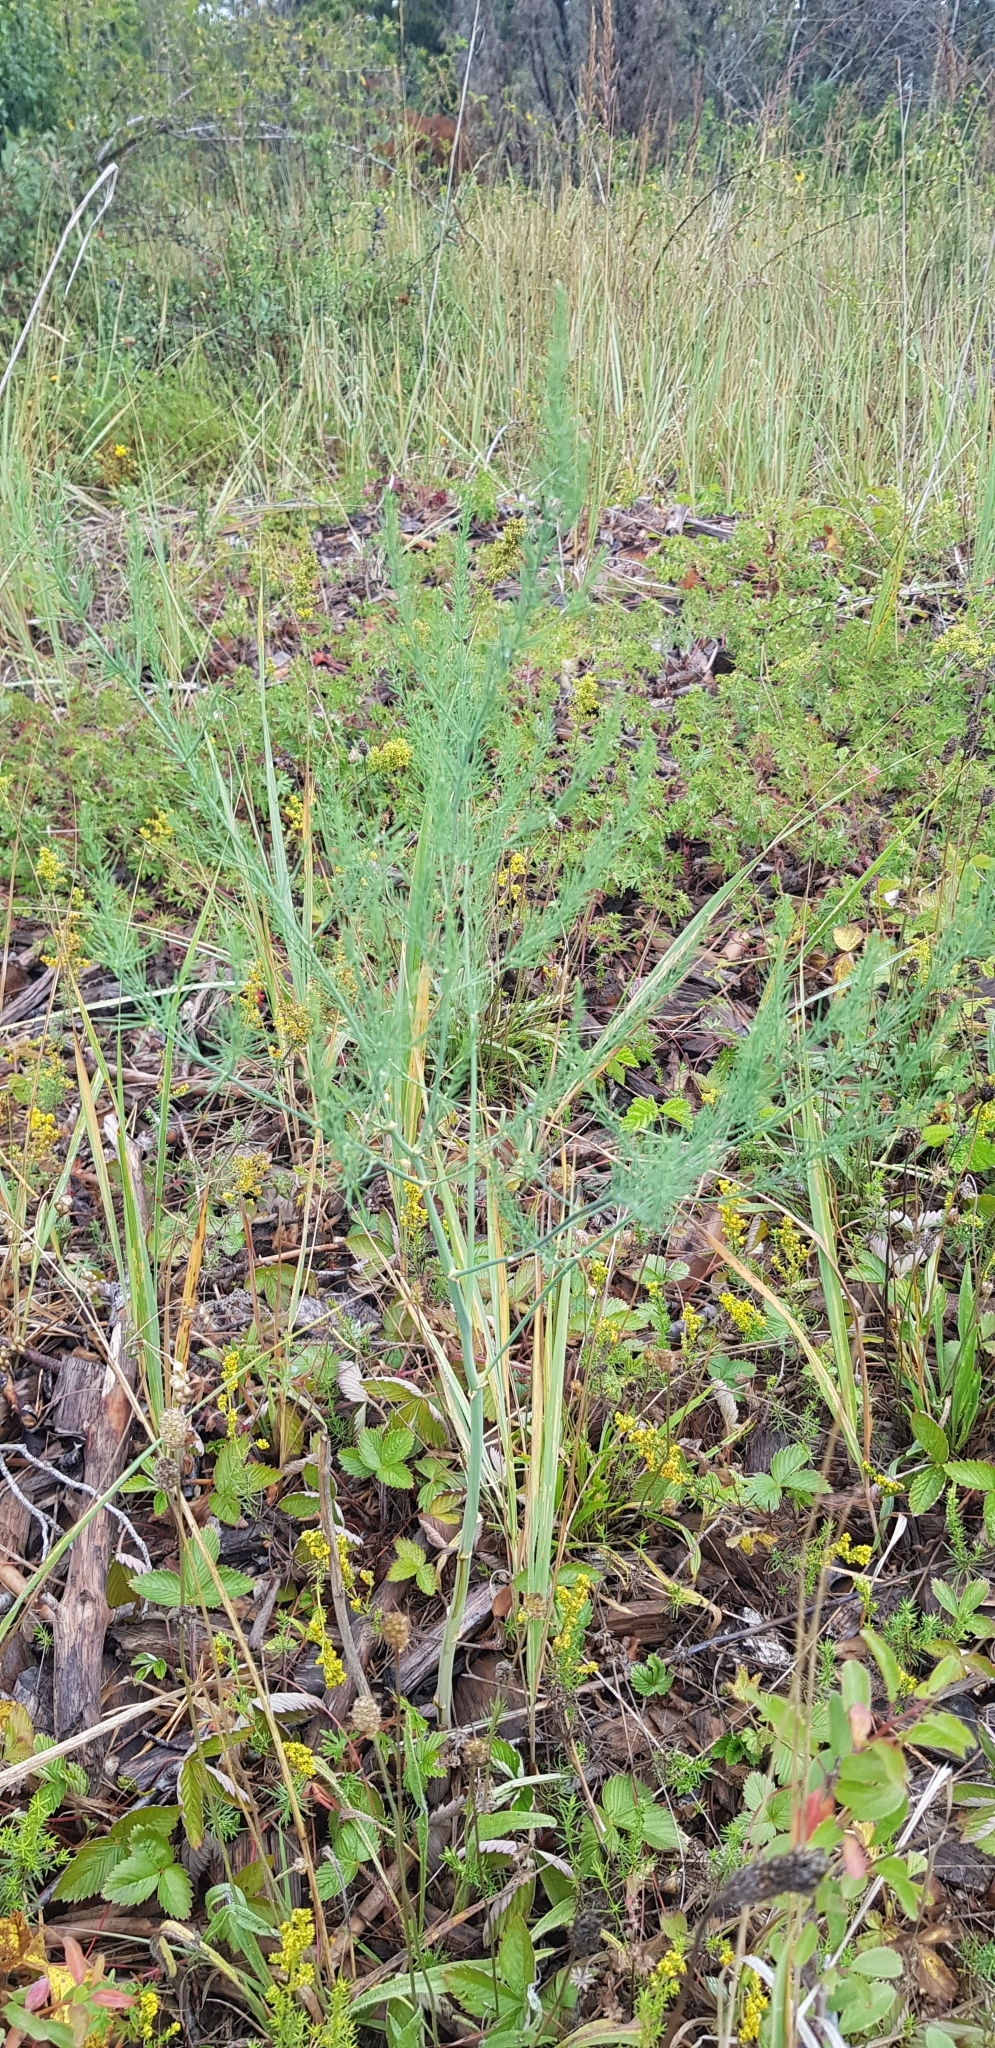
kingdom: Plantae
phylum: Tracheophyta
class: Liliopsida
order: Asparagales
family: Asparagaceae
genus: Asparagus
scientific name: Asparagus officinalis
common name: Garden asparagus
